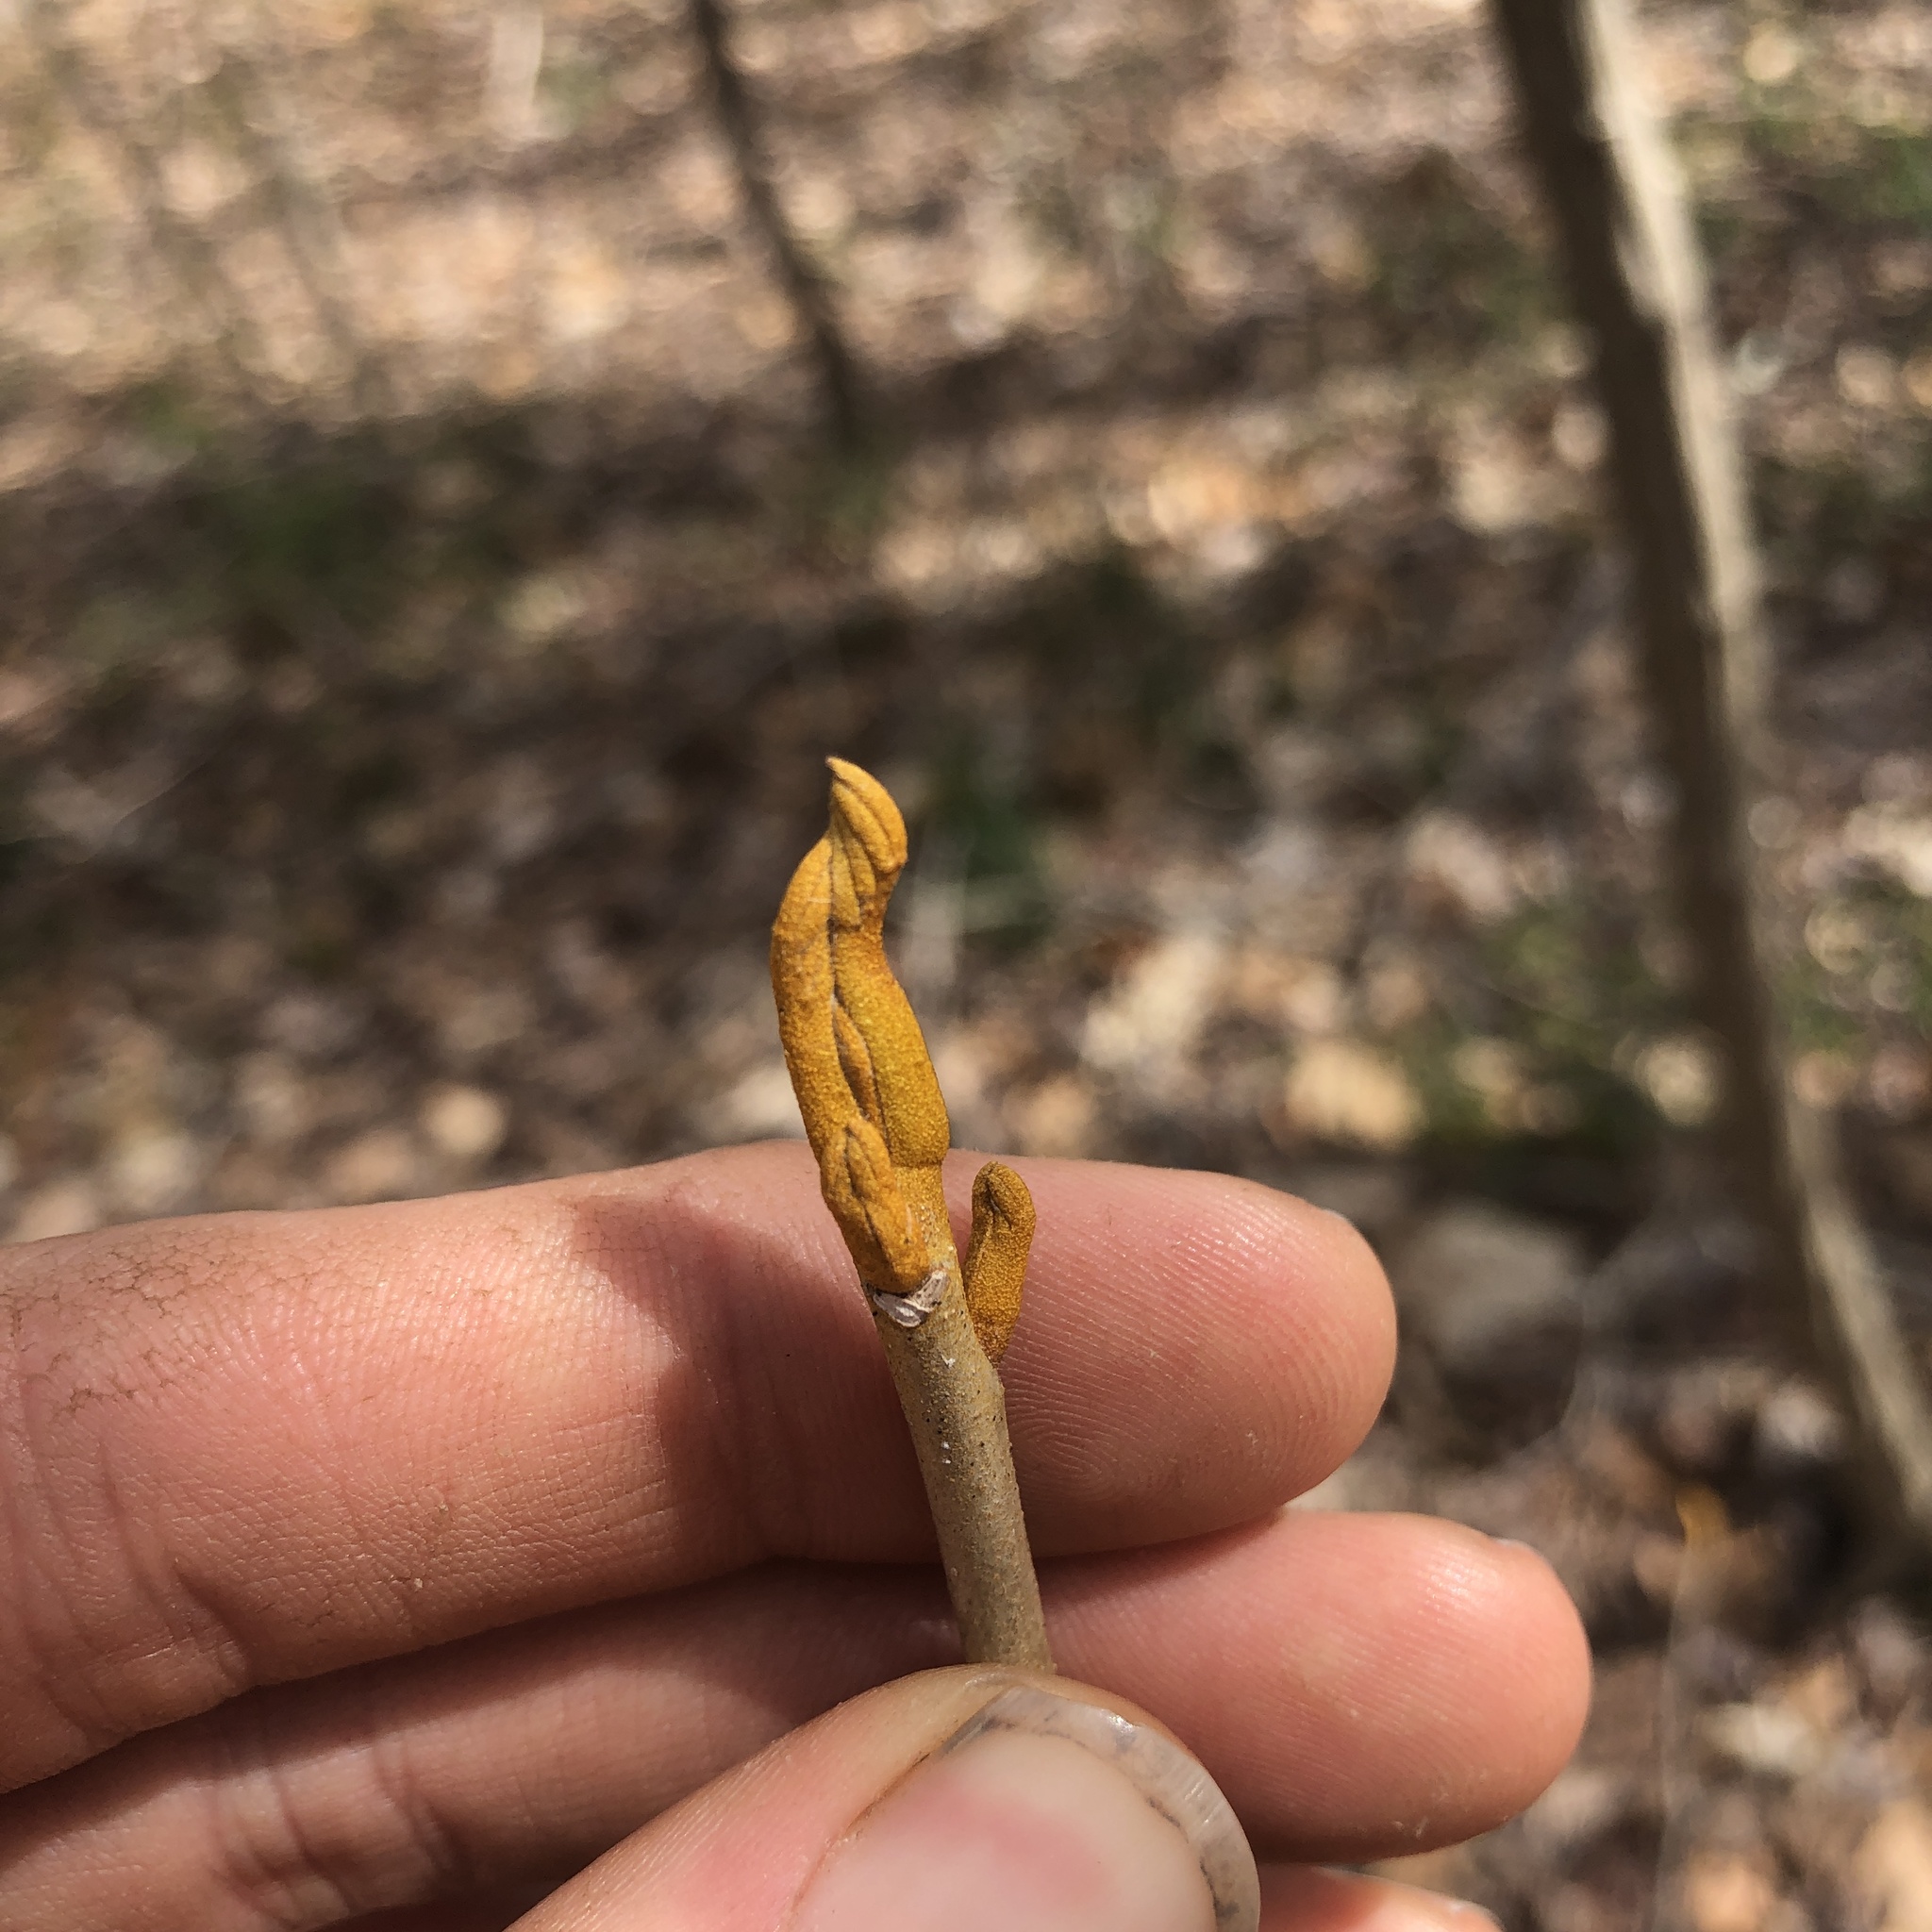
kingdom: Plantae
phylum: Tracheophyta
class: Magnoliopsida
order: Fagales
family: Juglandaceae
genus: Carya
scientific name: Carya cordiformis
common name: Bitternut hickory
